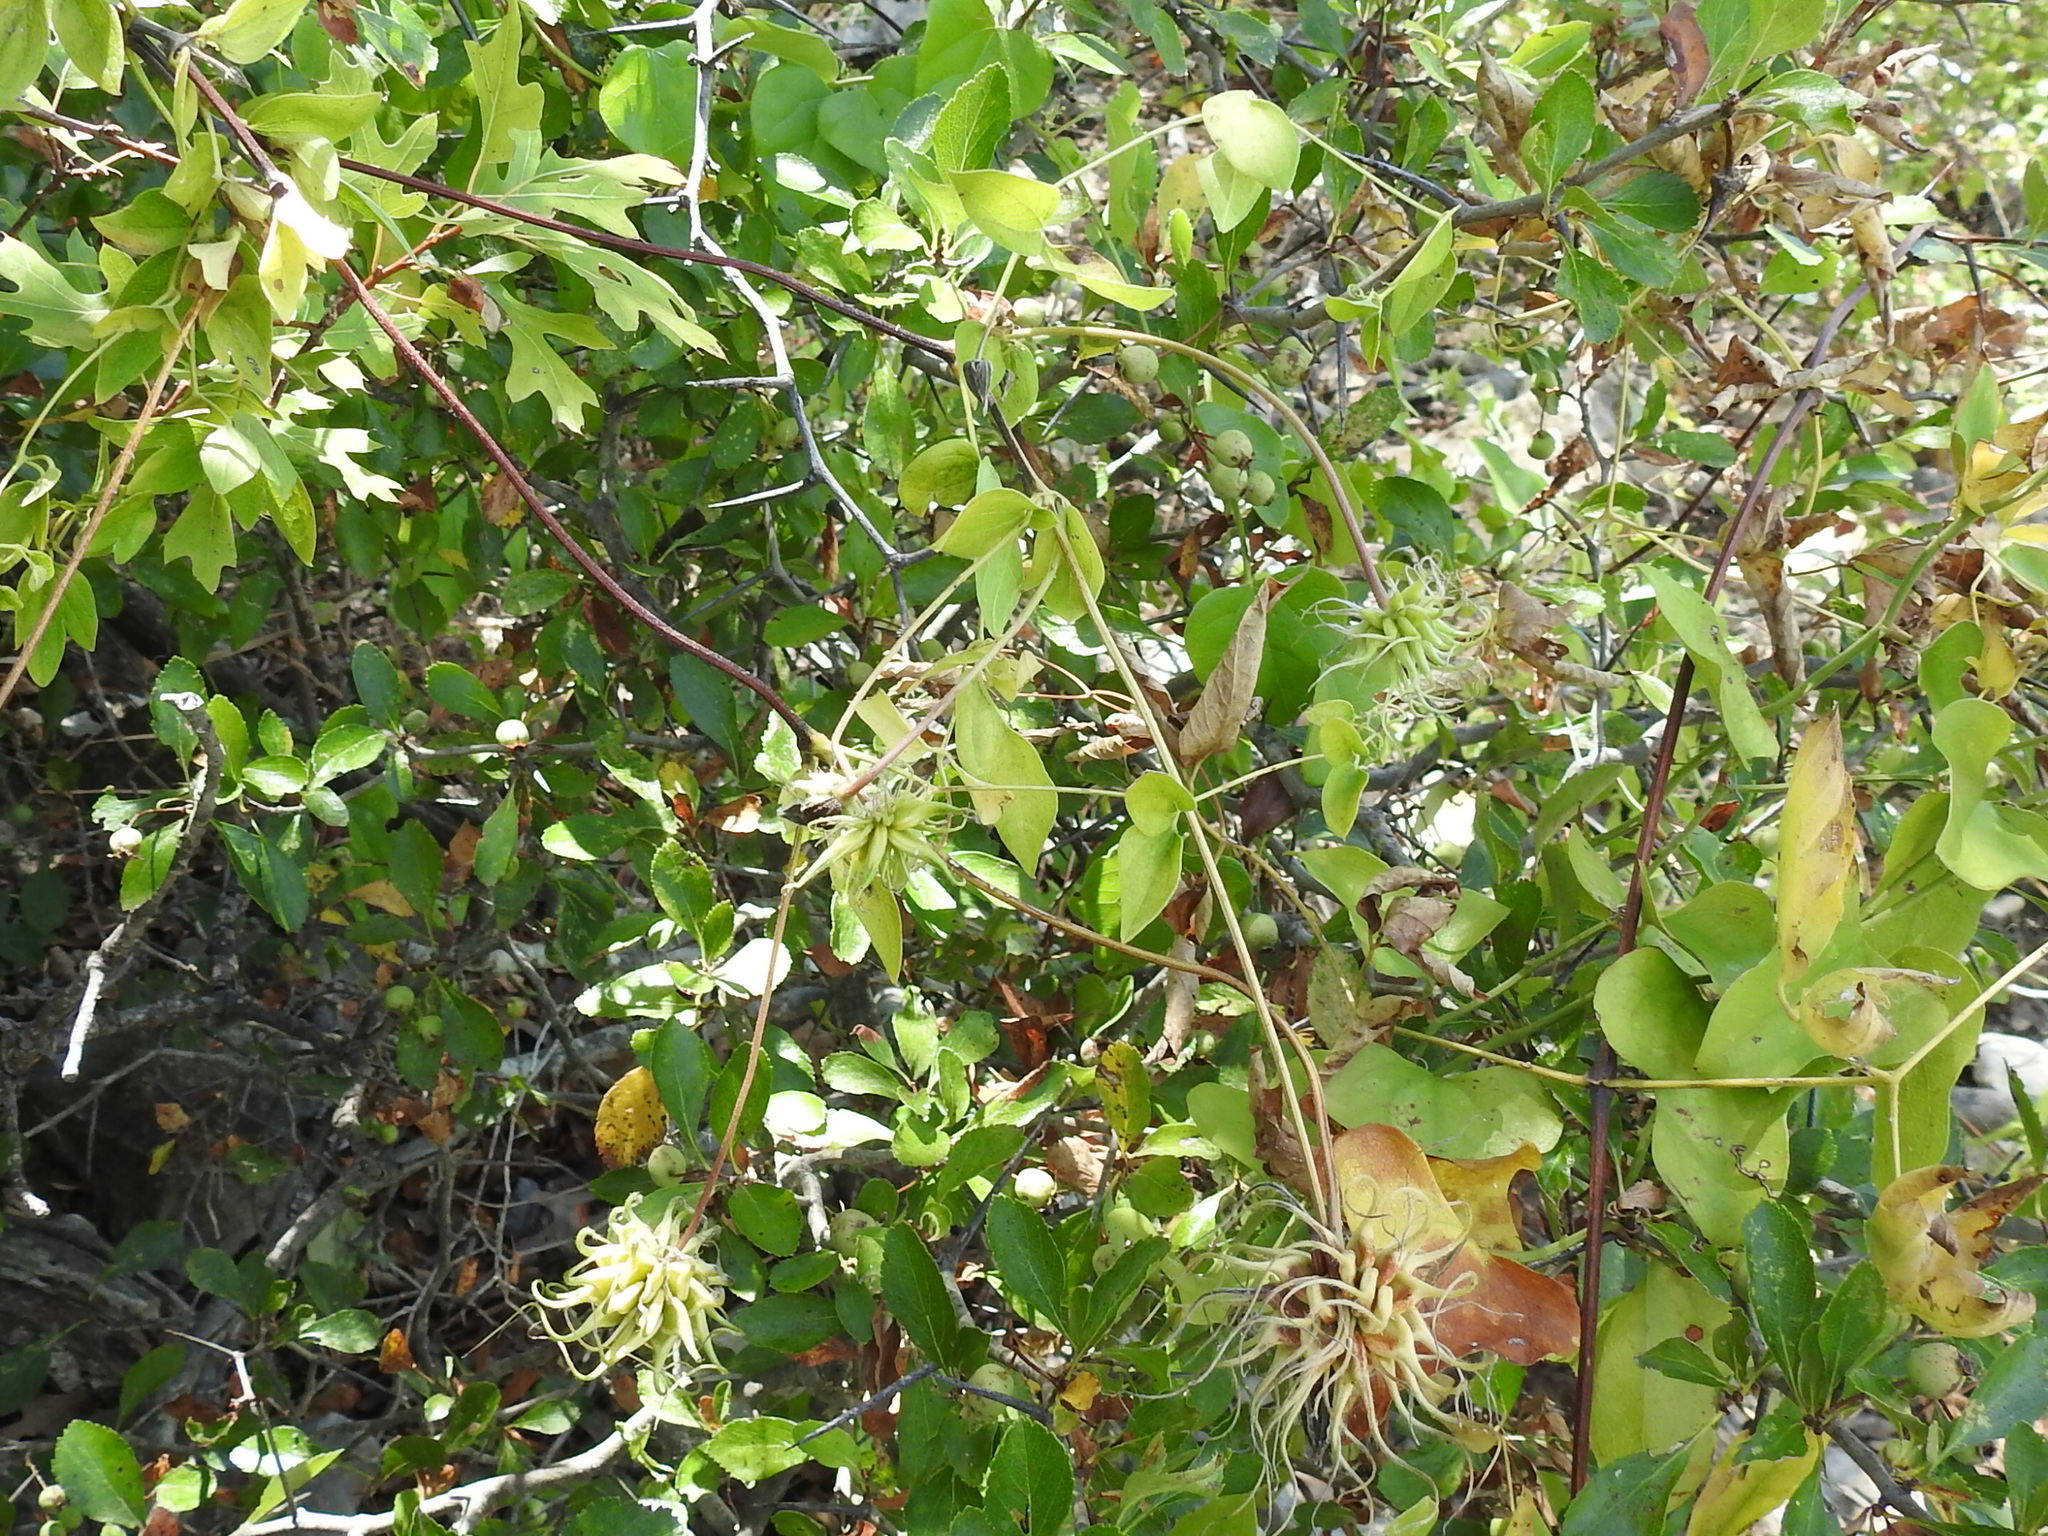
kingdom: Plantae
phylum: Tracheophyta
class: Magnoliopsida
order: Ranunculales
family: Ranunculaceae
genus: Clematis
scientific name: Clematis pitcheri
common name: Bellflower clematis
